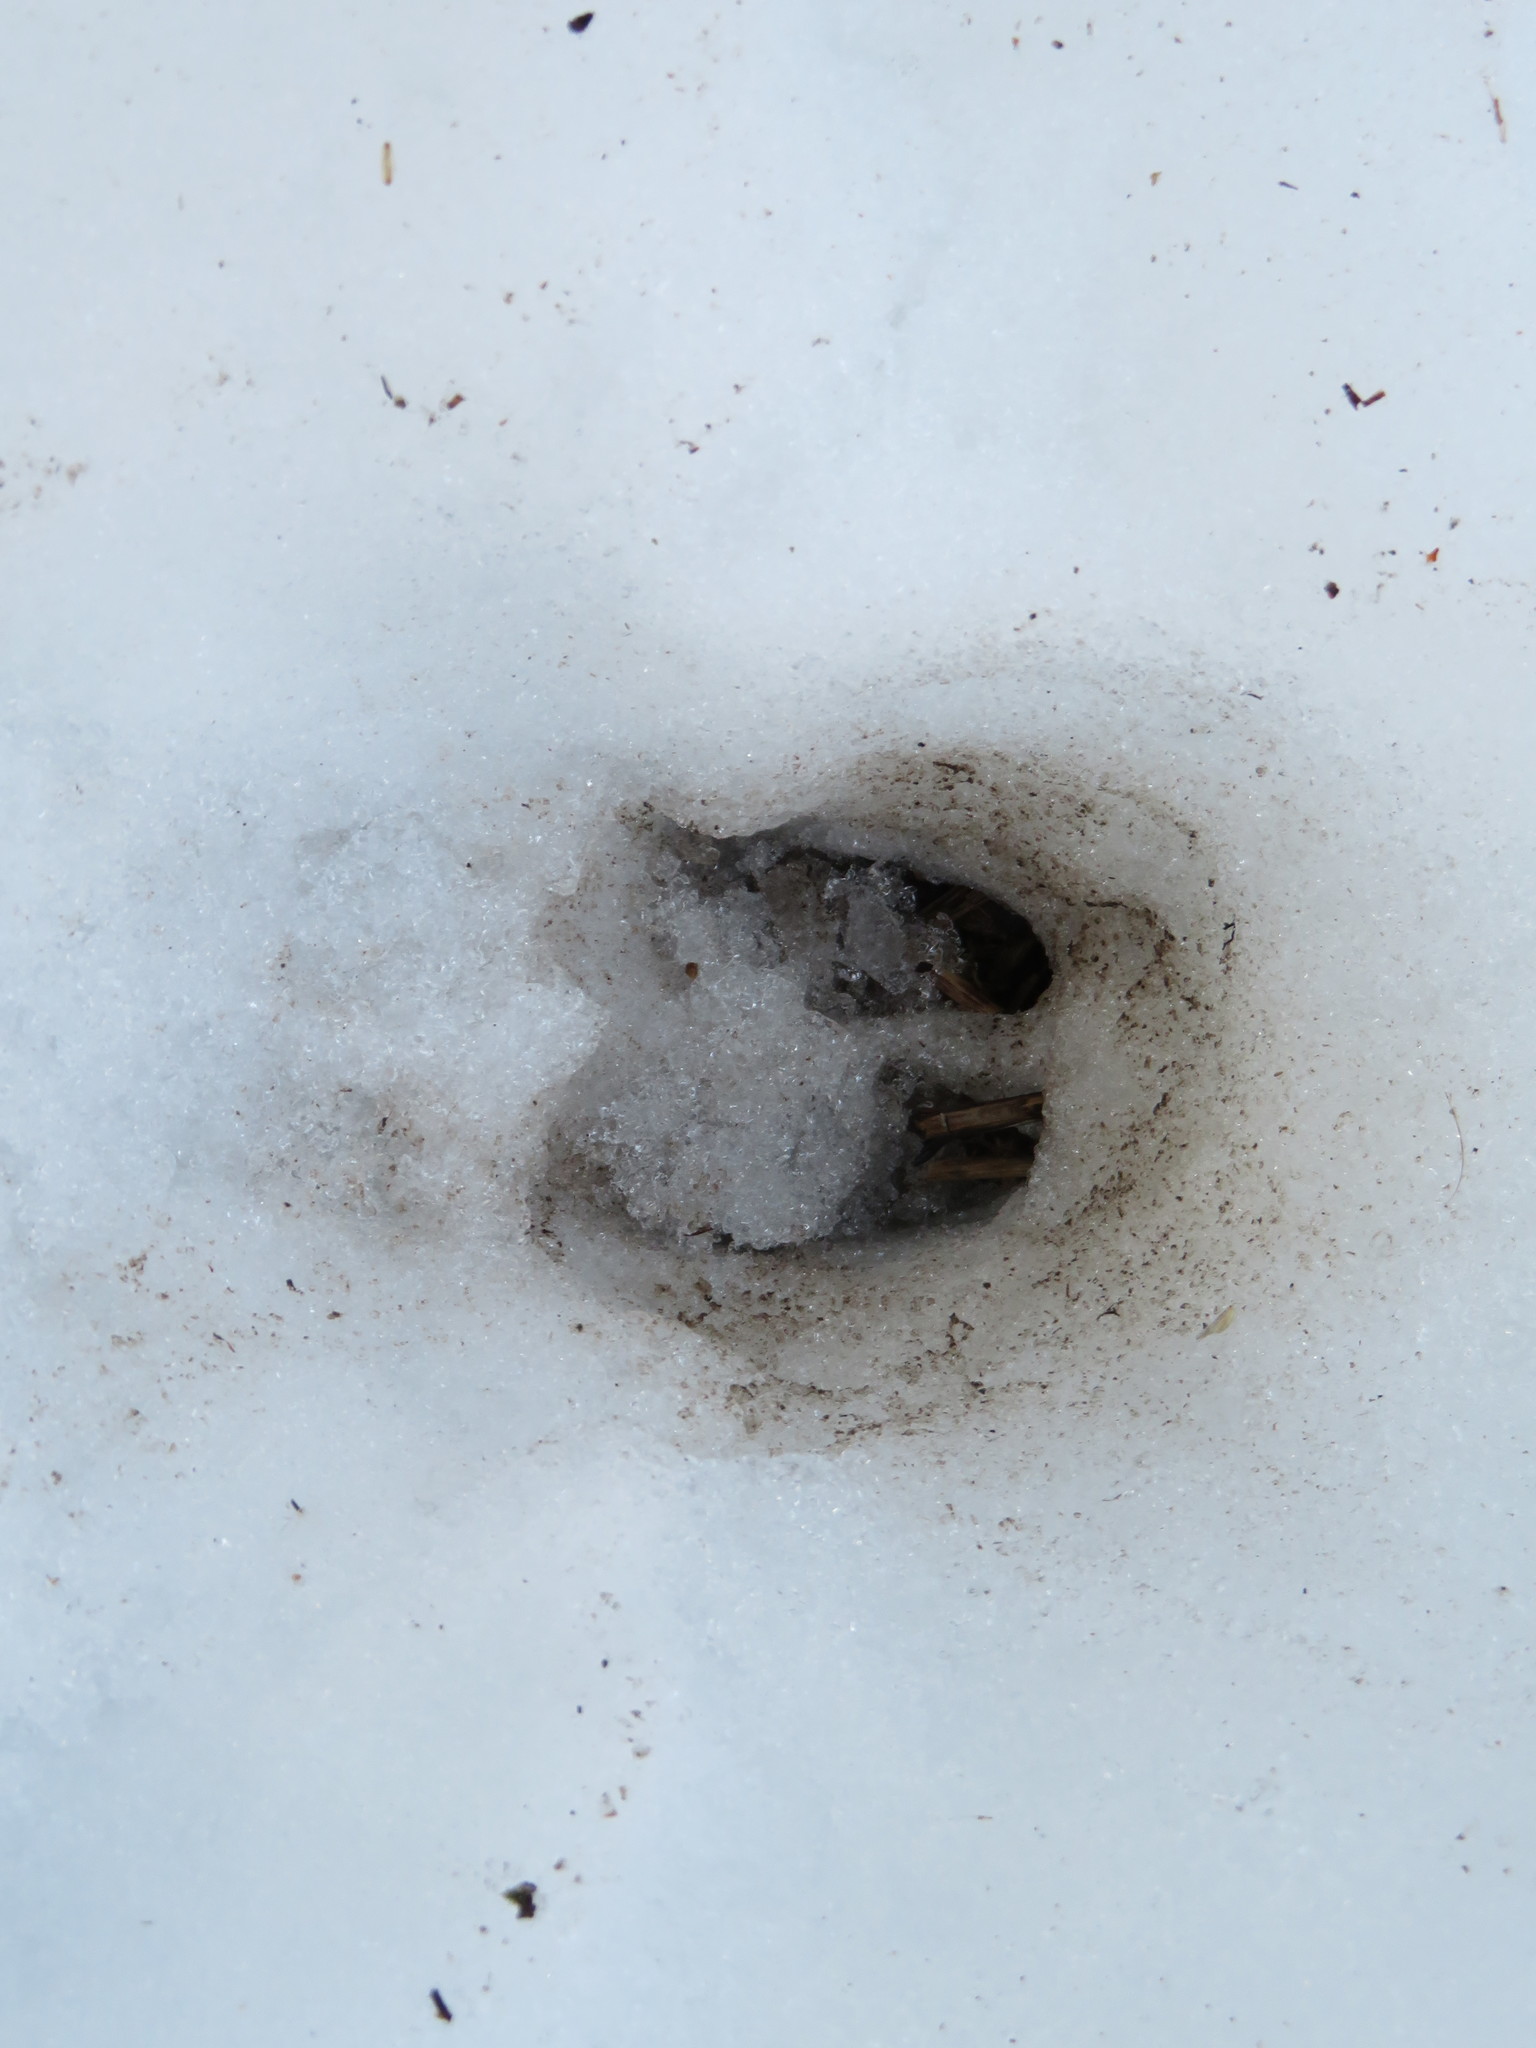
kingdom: Animalia
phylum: Chordata
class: Mammalia
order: Artiodactyla
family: Cervidae
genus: Odocoileus
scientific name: Odocoileus virginianus
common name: White-tailed deer
